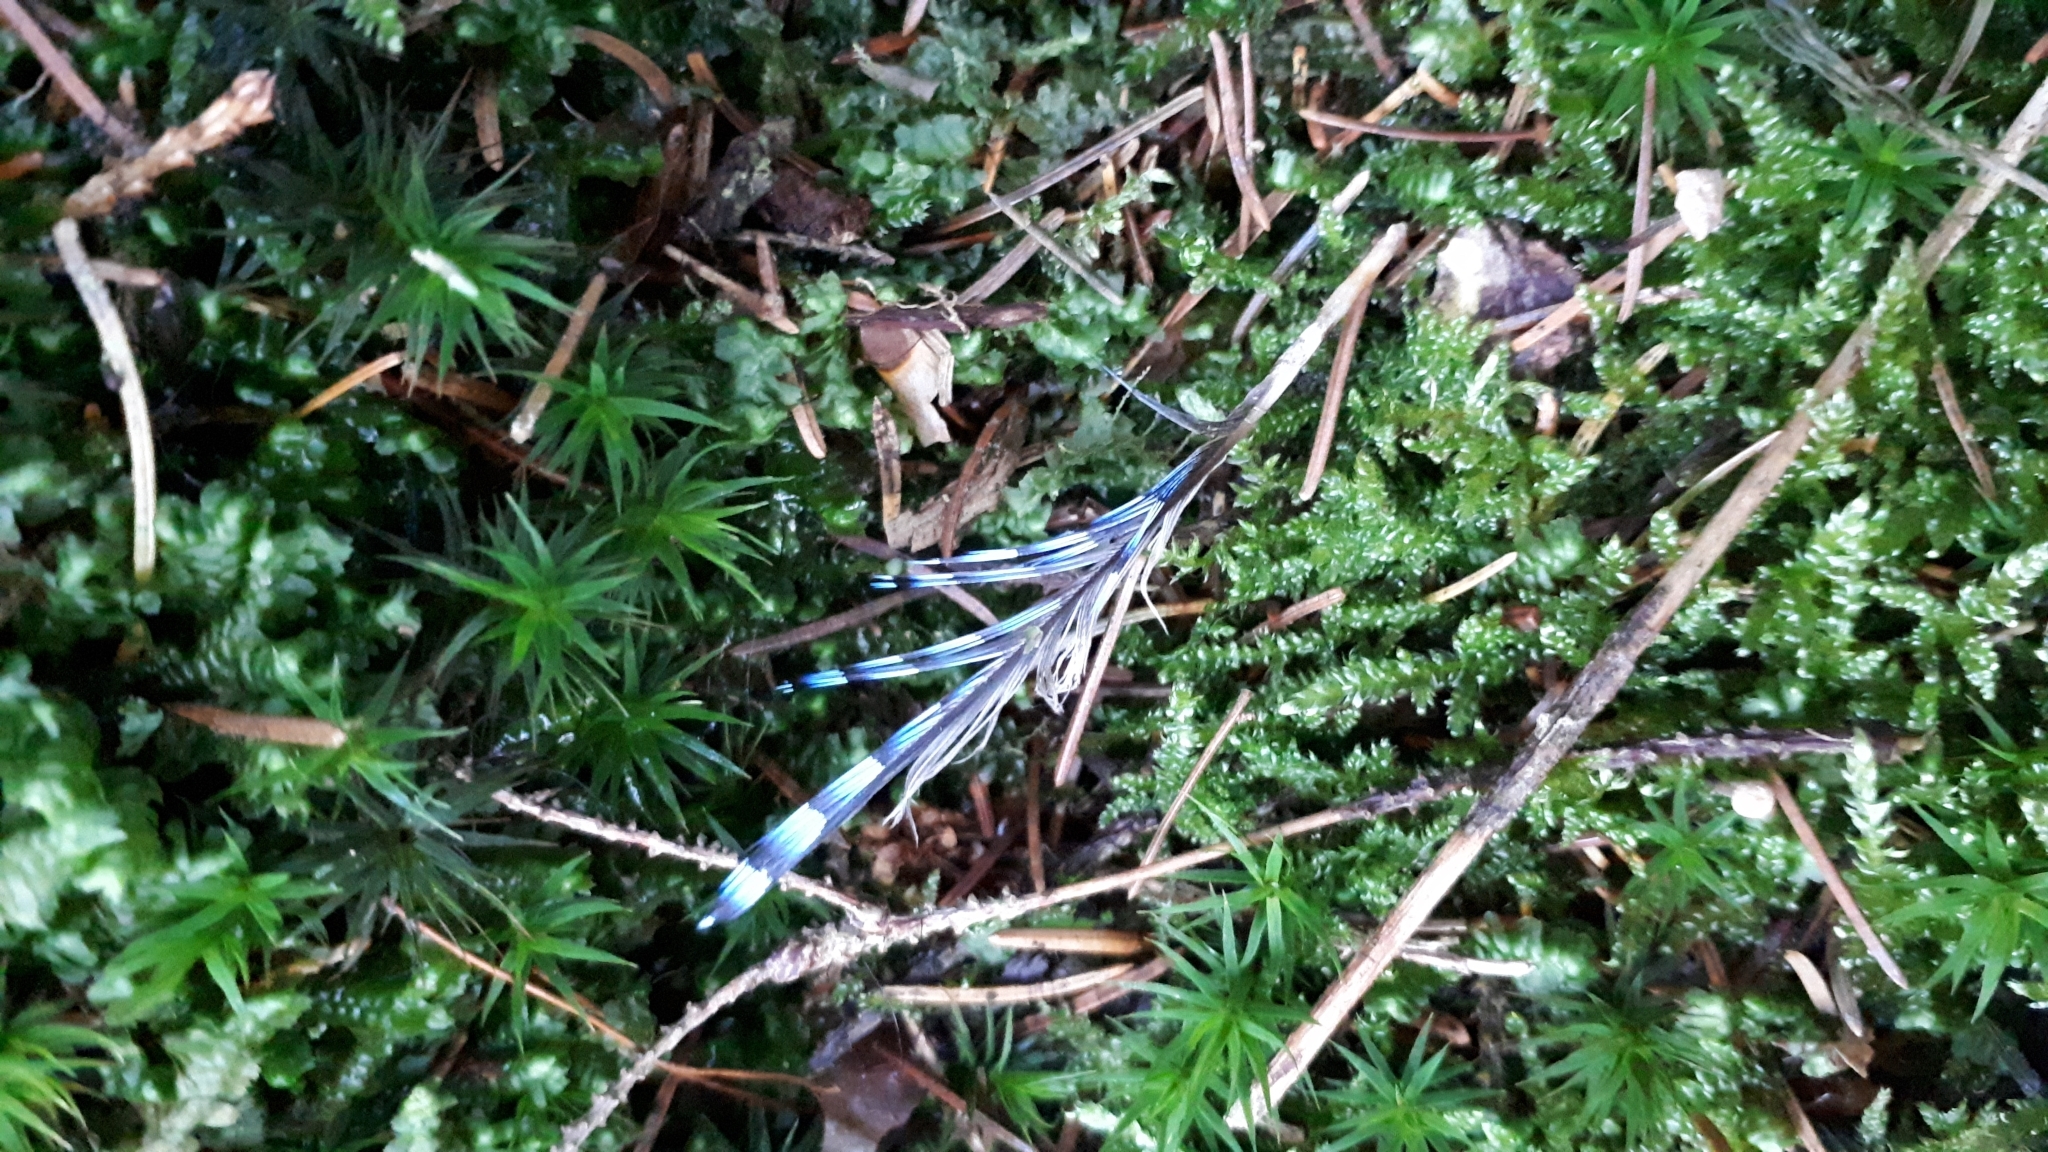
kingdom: Animalia
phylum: Chordata
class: Aves
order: Passeriformes
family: Corvidae
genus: Garrulus
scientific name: Garrulus glandarius
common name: Eurasian jay
